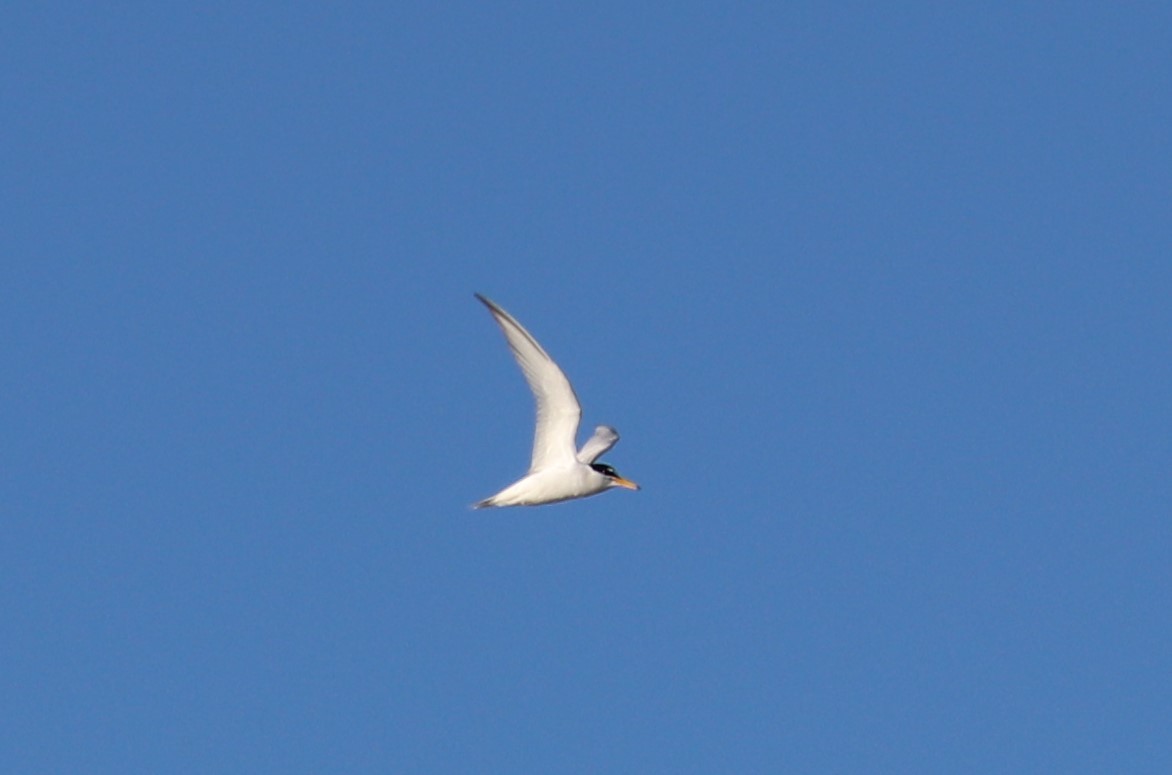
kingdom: Animalia
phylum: Chordata
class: Aves
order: Charadriiformes
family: Laridae
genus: Sternula
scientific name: Sternula albifrons
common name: Little tern
